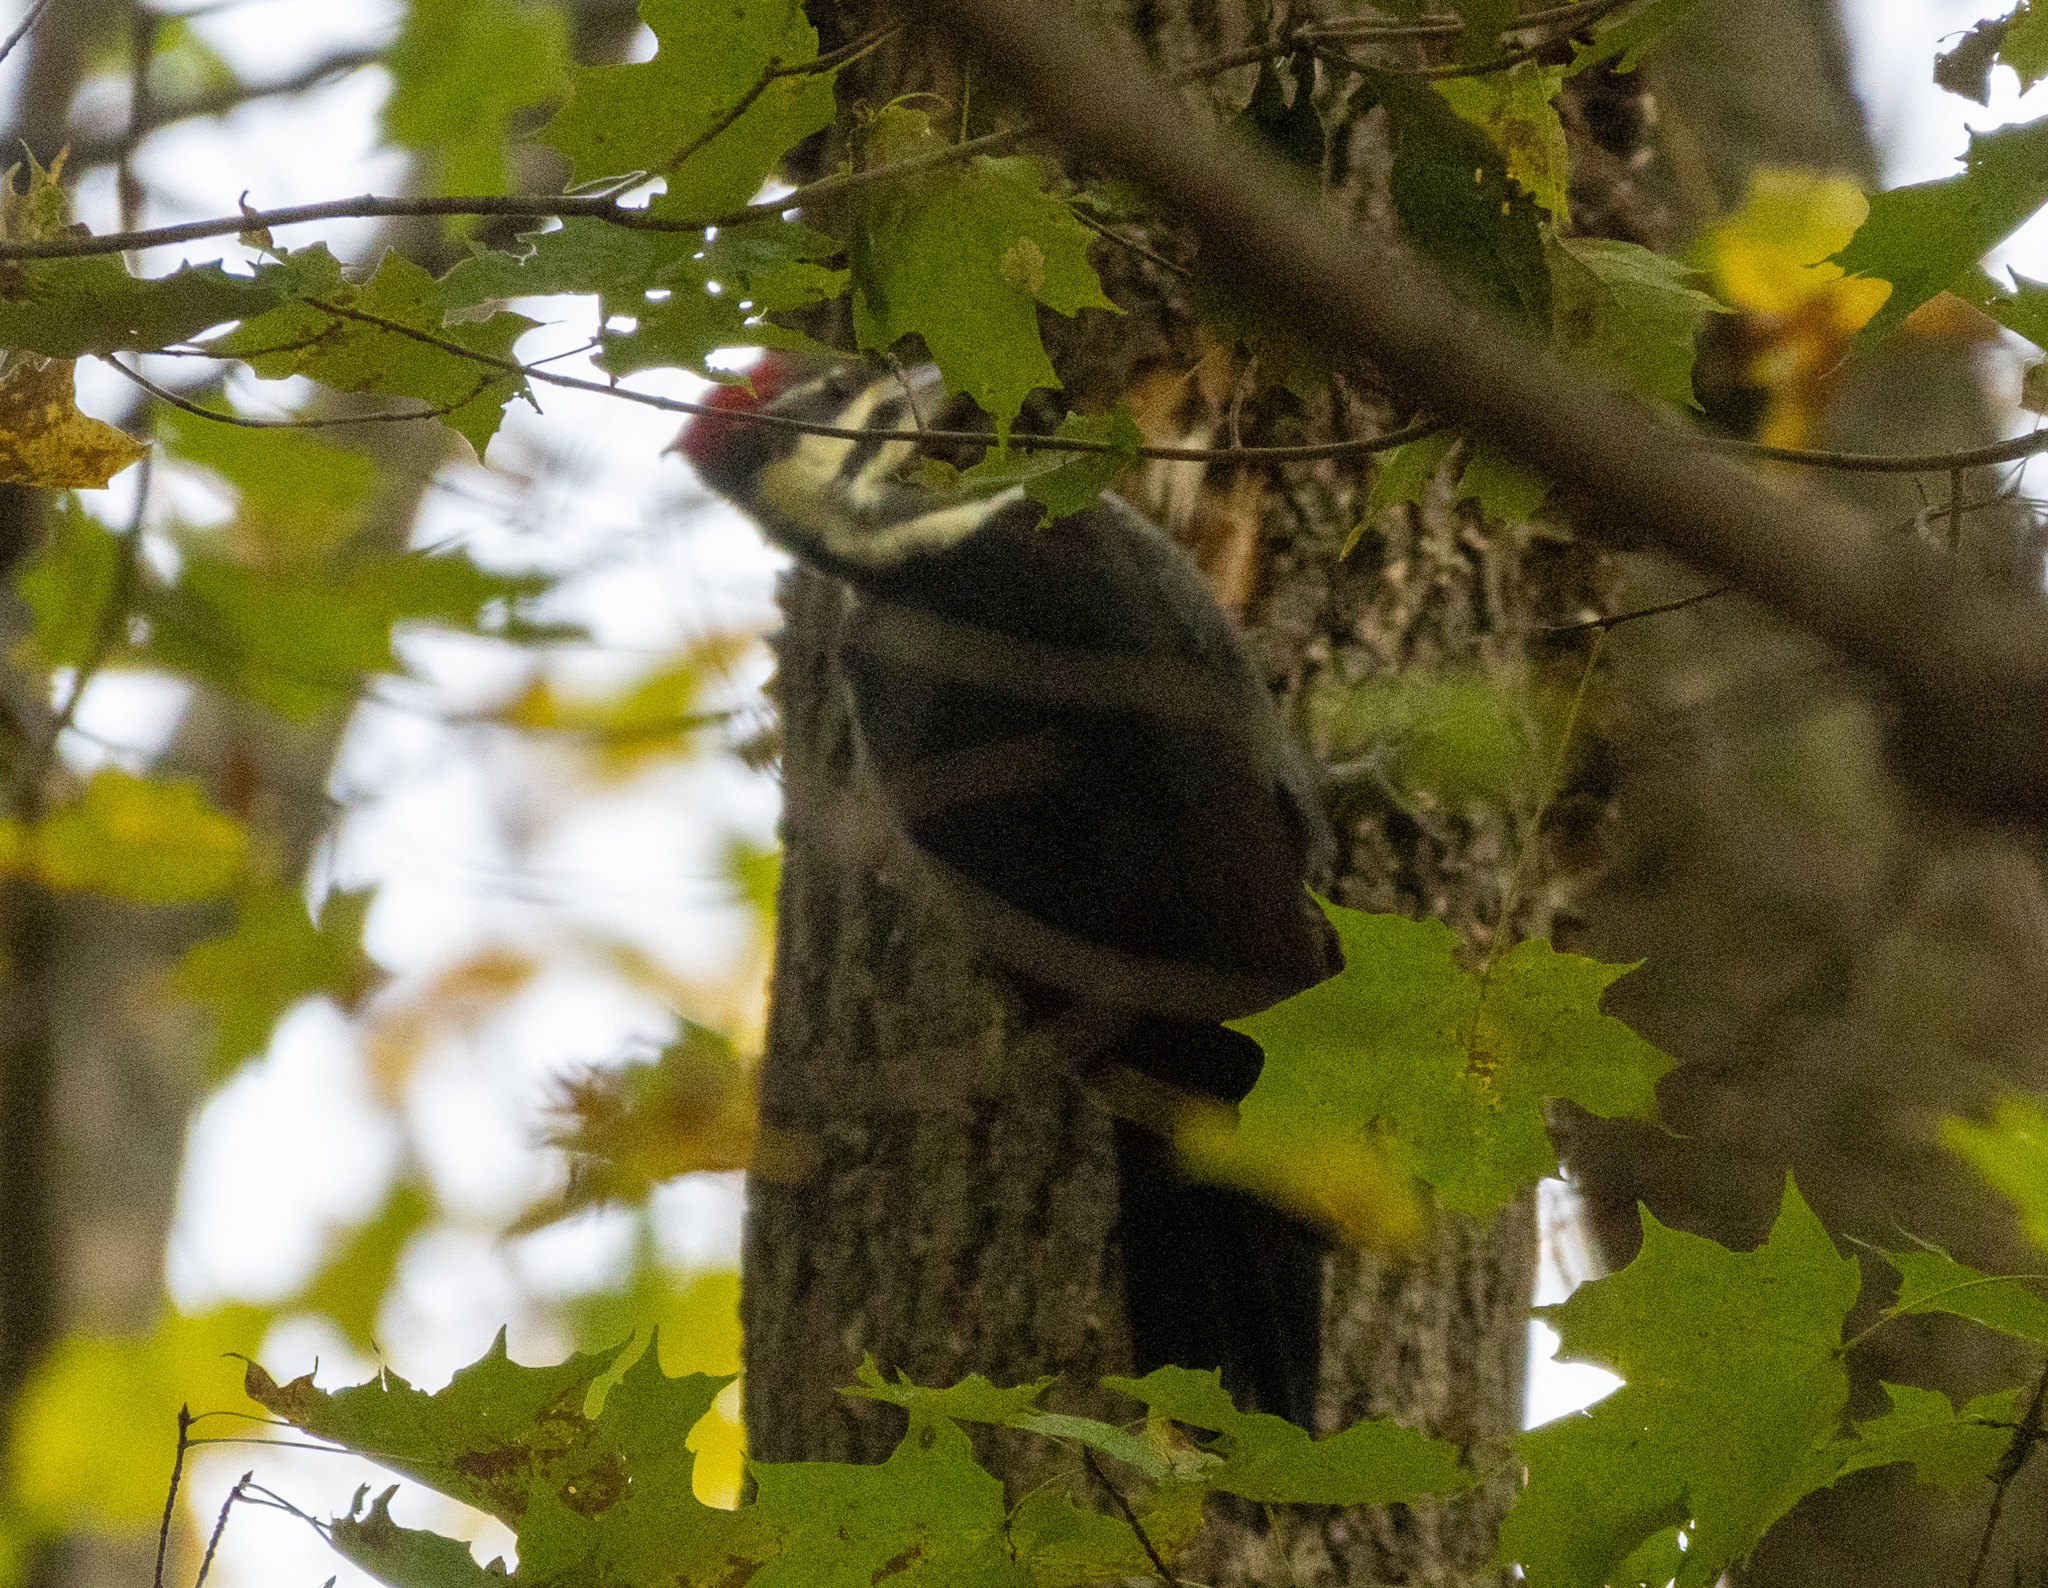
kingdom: Animalia
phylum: Chordata
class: Aves
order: Piciformes
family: Picidae
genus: Dryocopus
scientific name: Dryocopus pileatus
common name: Pileated woodpecker
